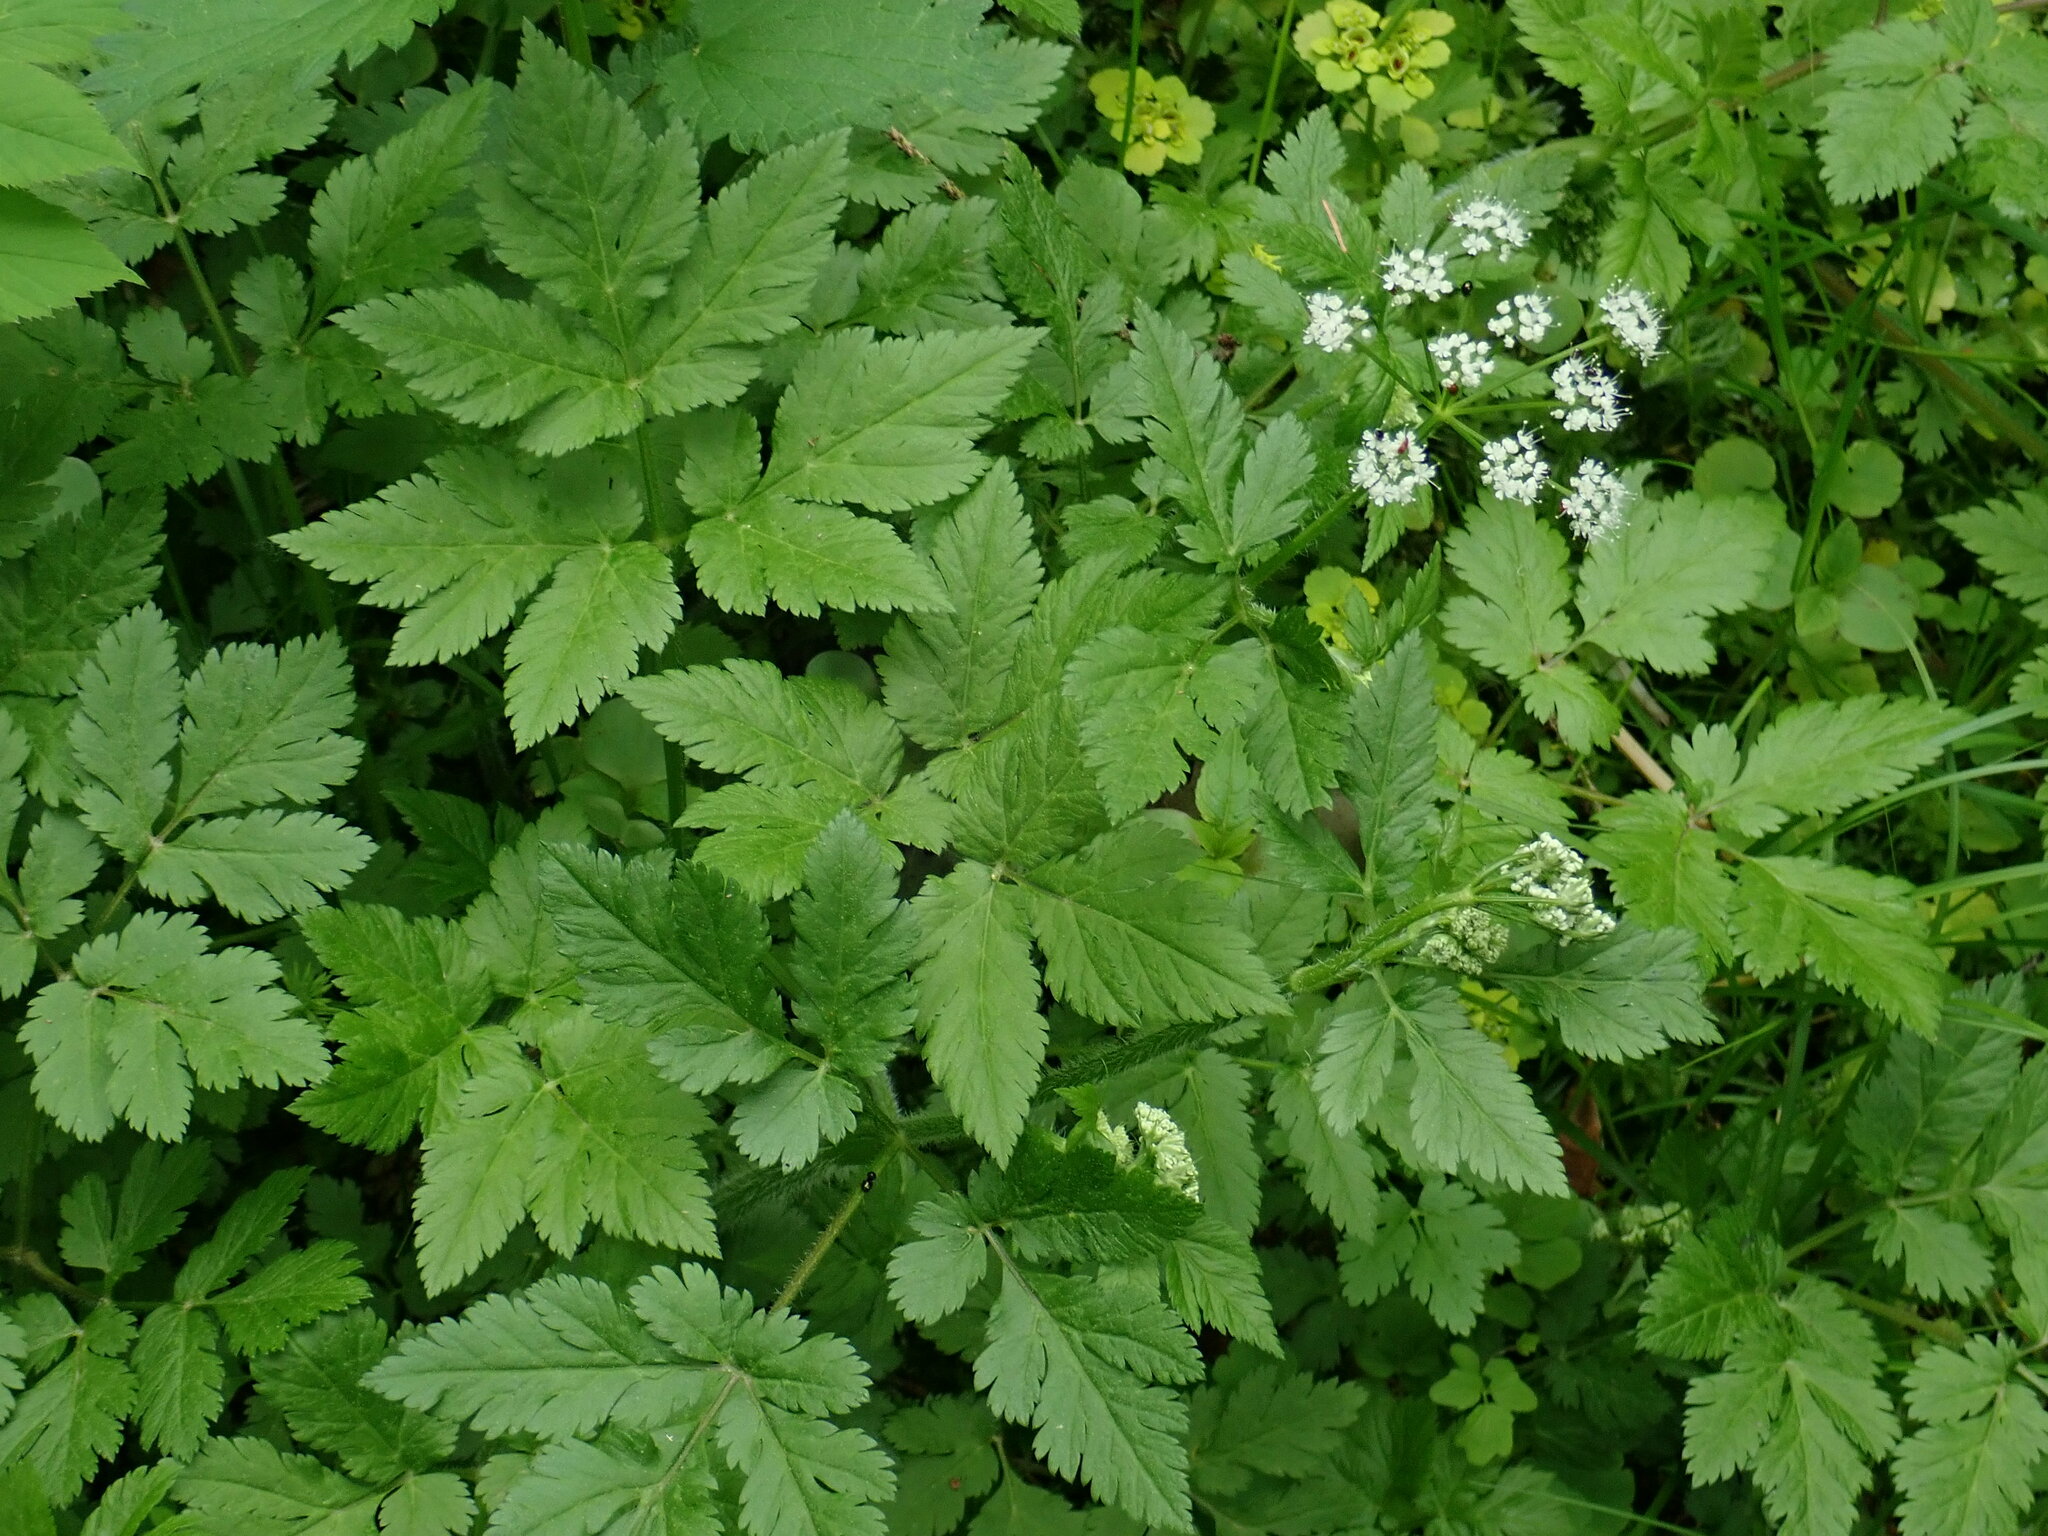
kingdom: Plantae
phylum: Tracheophyta
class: Magnoliopsida
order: Apiales
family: Apiaceae
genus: Chaerophyllum
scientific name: Chaerophyllum hirsutum
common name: Hairy chervil
